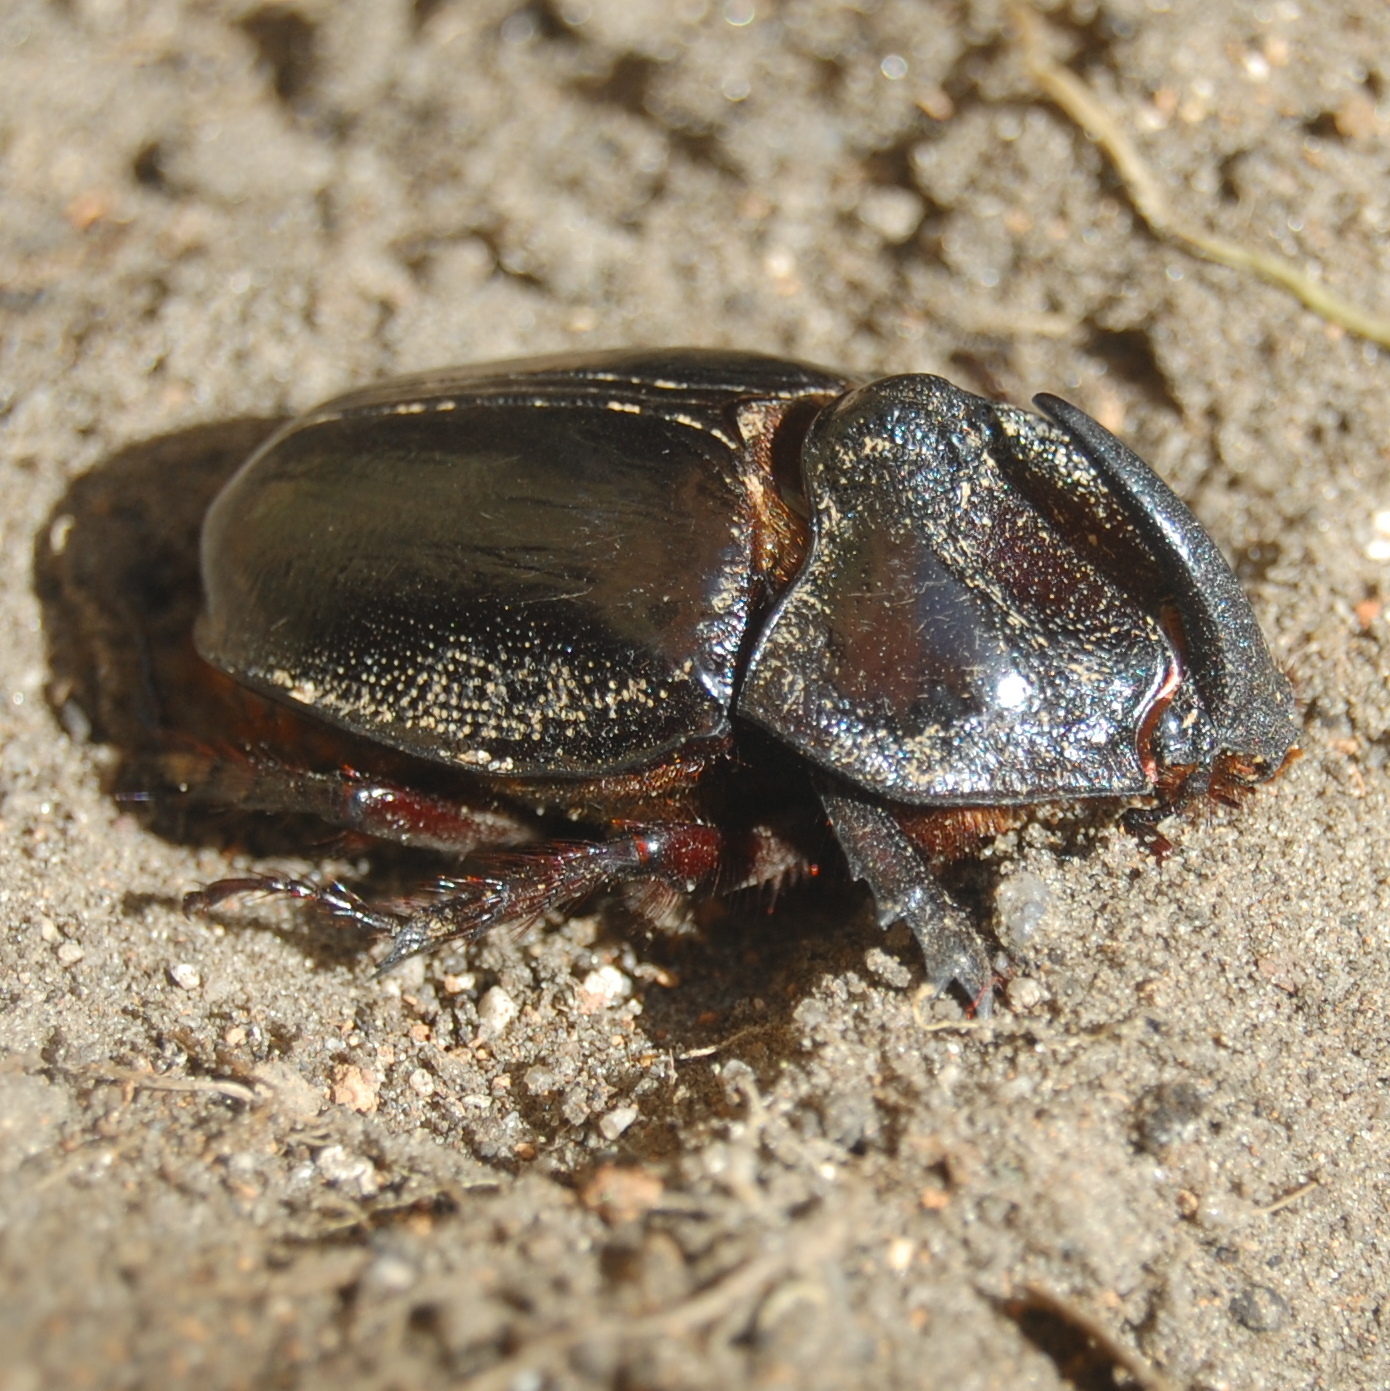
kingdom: Animalia
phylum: Arthropoda
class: Insecta
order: Coleoptera
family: Scarabaeidae
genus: Enema
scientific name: Enema pan
